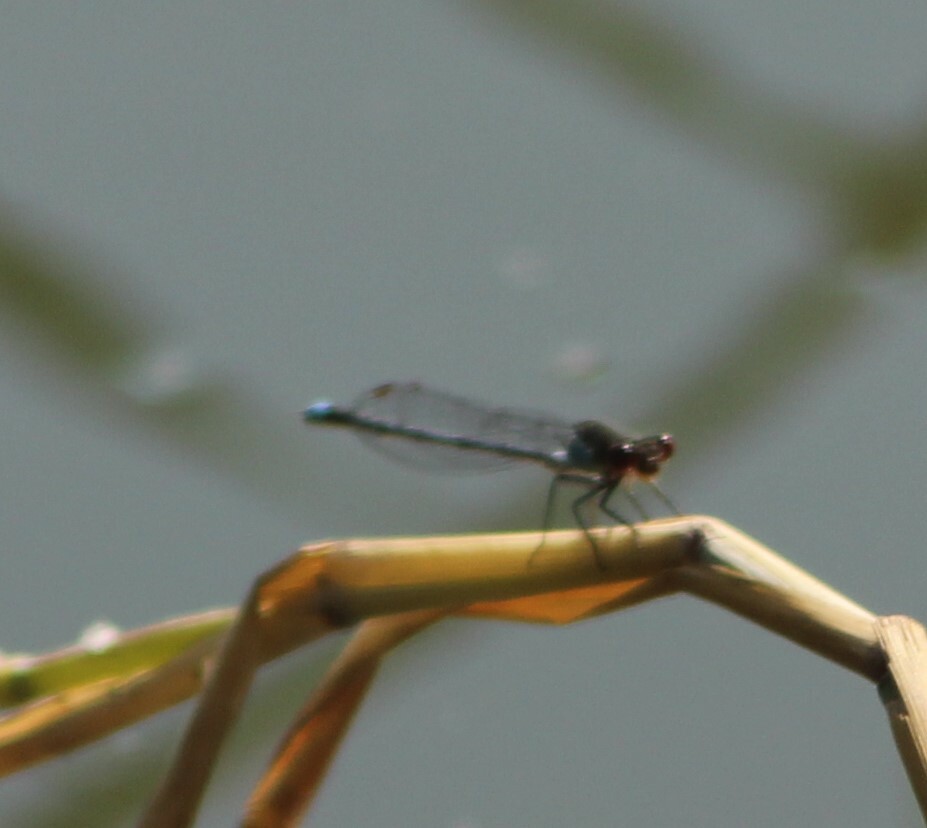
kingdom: Animalia
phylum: Arthropoda
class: Insecta
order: Odonata
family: Coenagrionidae
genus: Erythromma
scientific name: Erythromma najas
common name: Red-eyed damselfly
